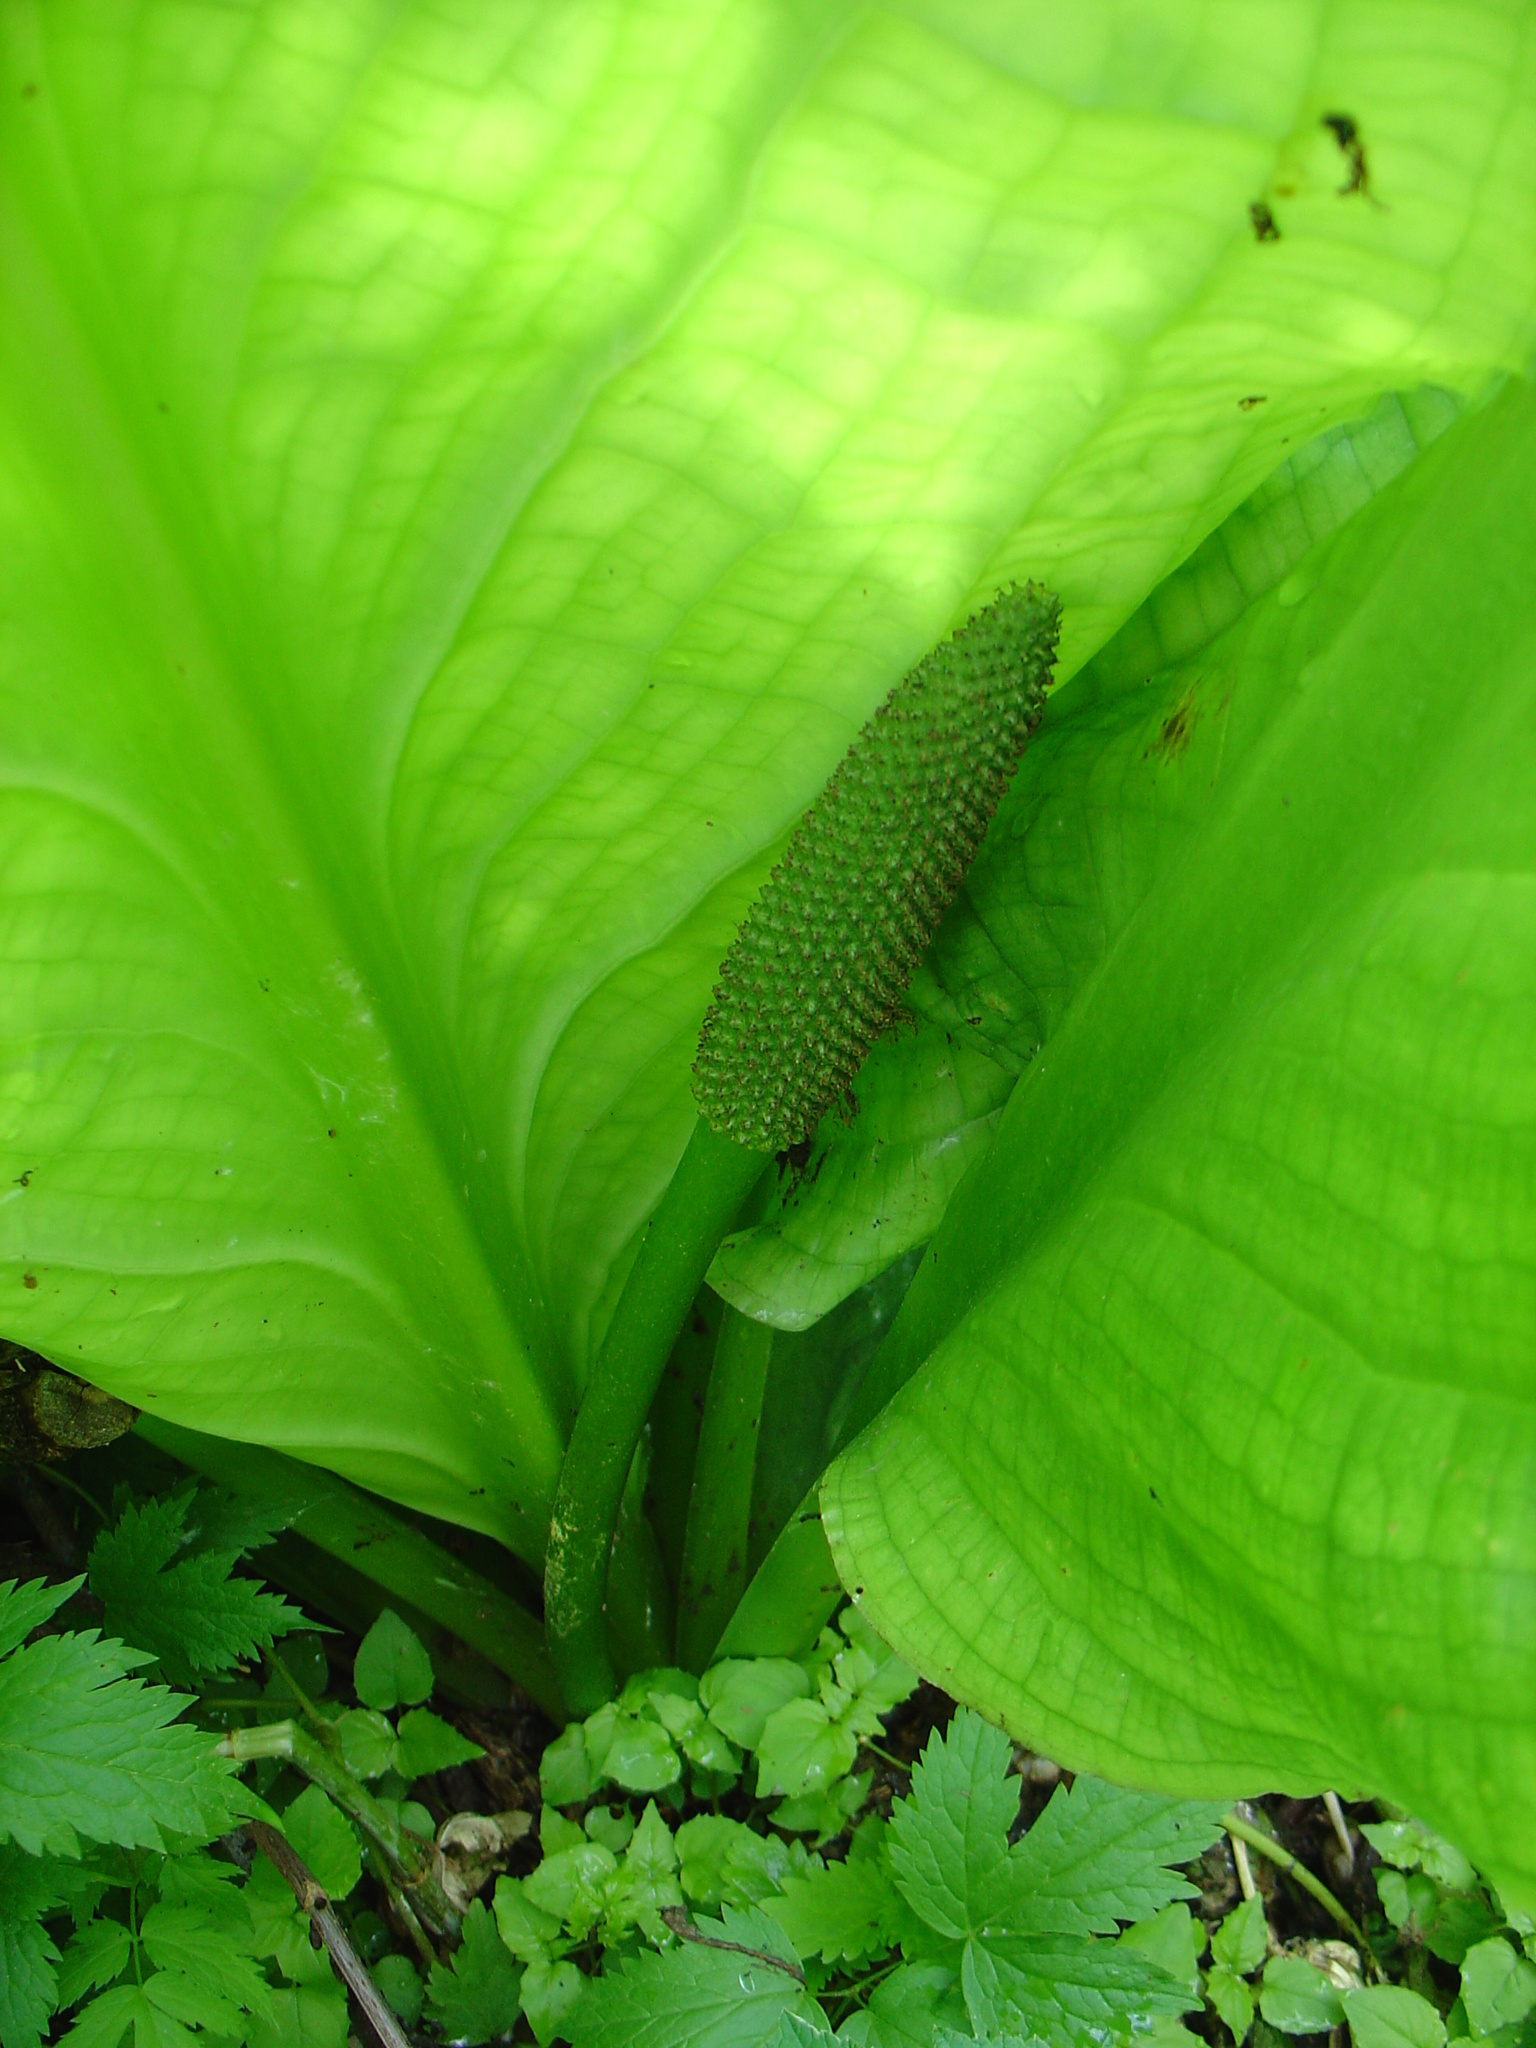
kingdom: Plantae
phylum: Tracheophyta
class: Liliopsida
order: Alismatales
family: Araceae
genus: Lysichiton
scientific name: Lysichiton americanus
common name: American skunk cabbage
